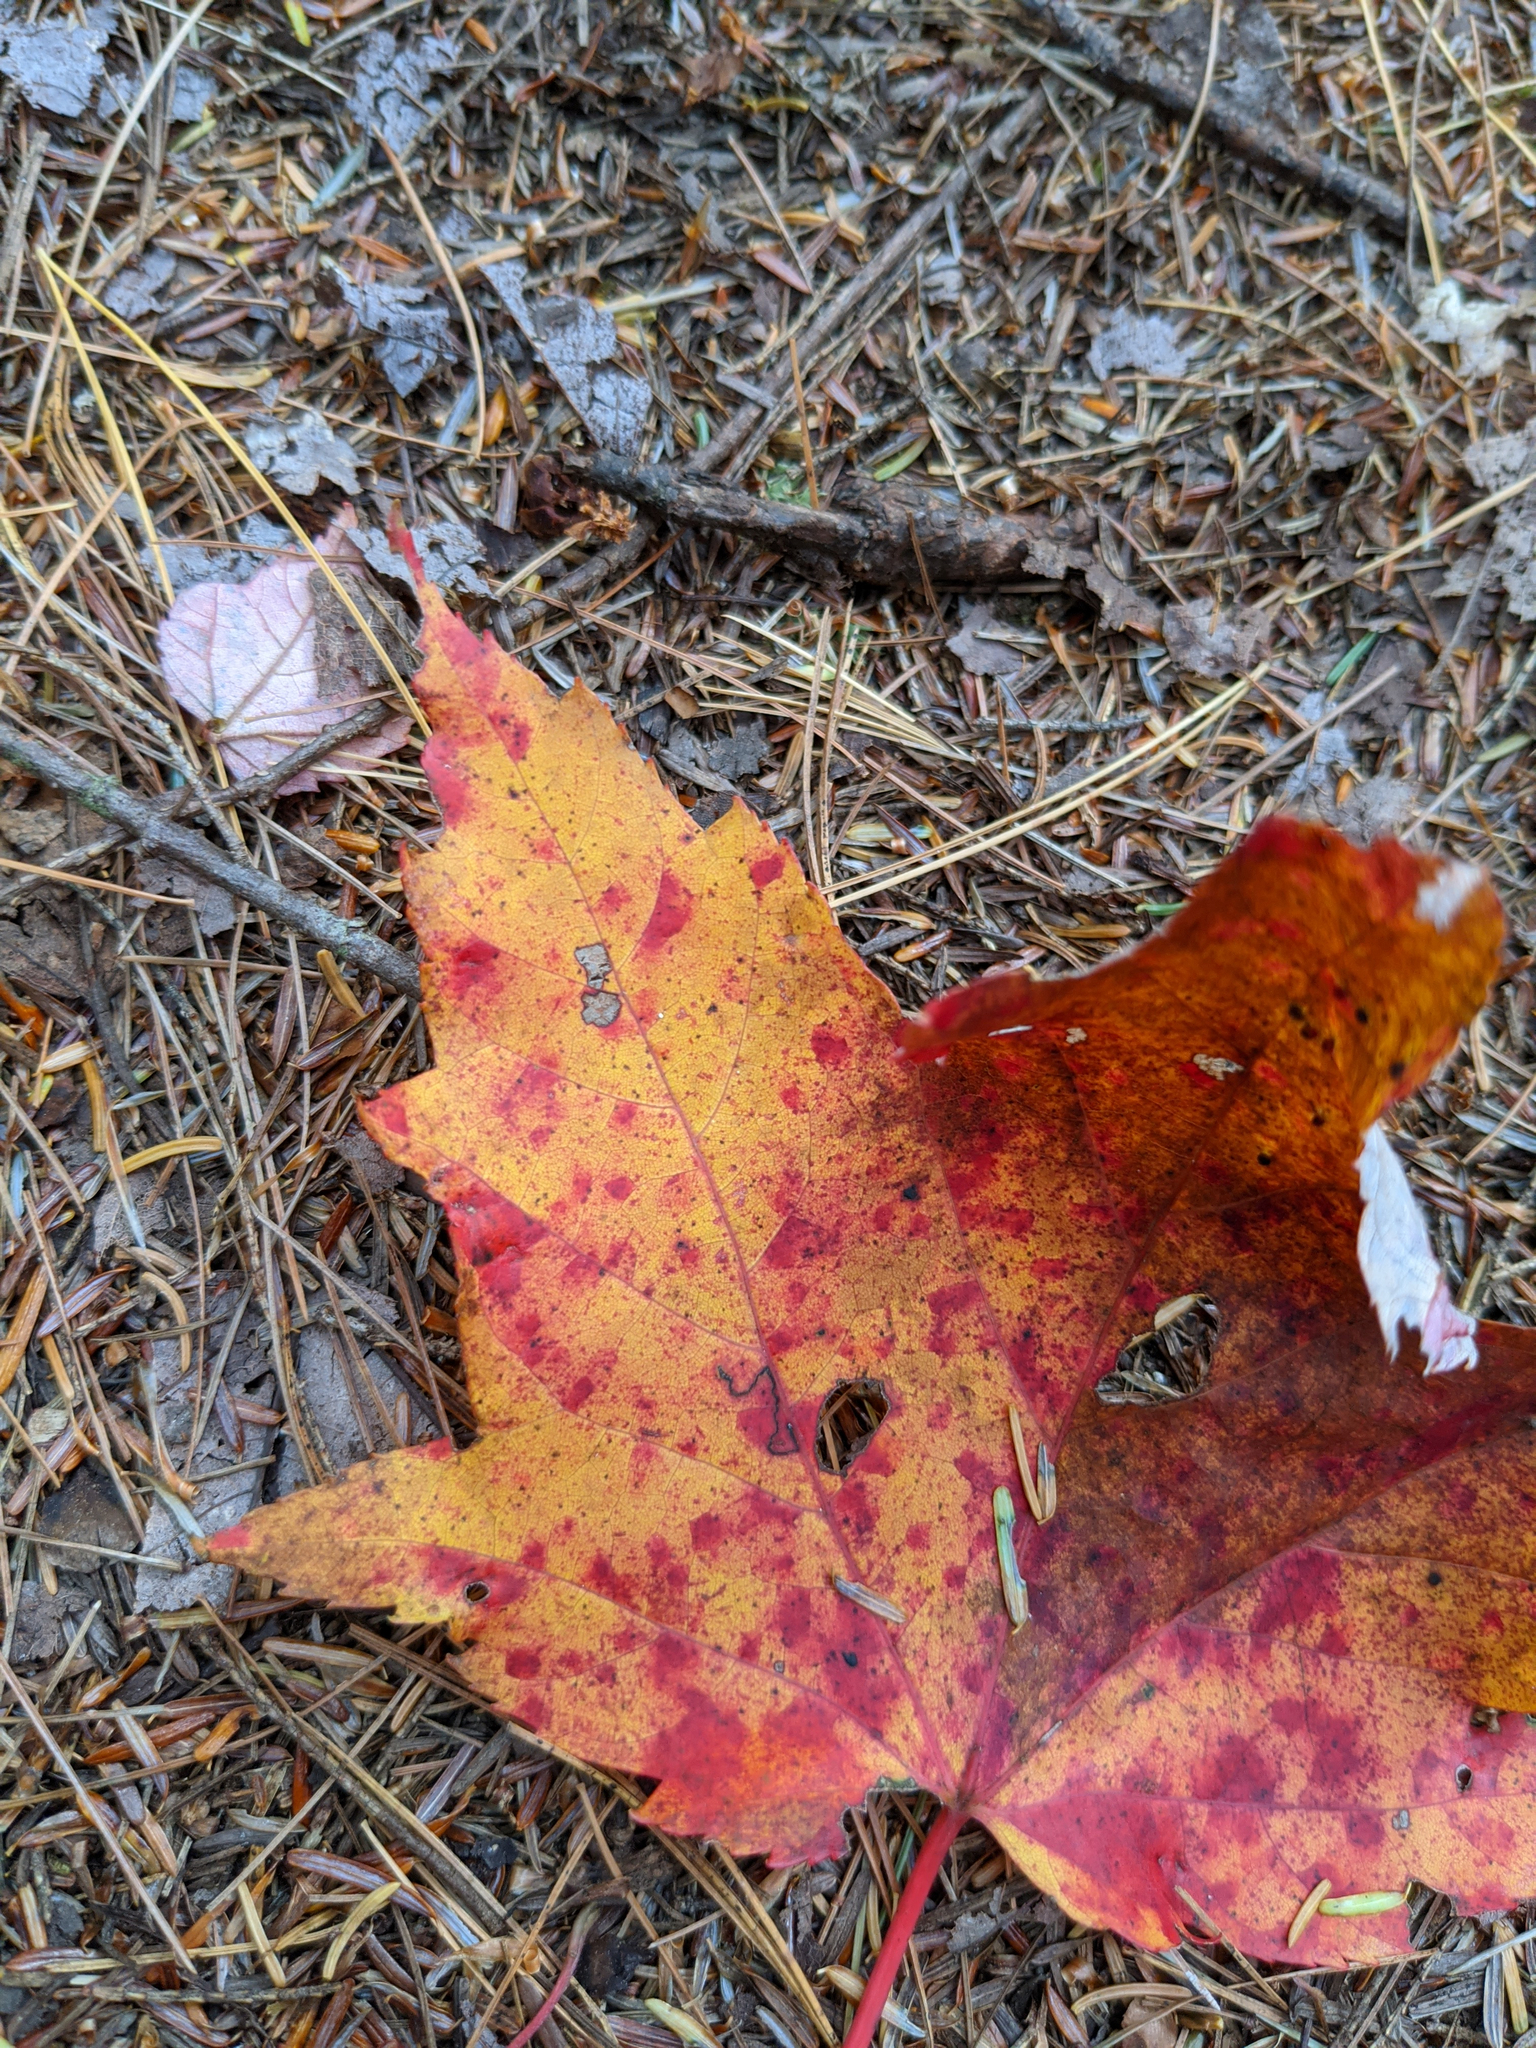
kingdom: Plantae
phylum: Tracheophyta
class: Magnoliopsida
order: Sapindales
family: Sapindaceae
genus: Acer
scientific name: Acer rubrum
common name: Red maple
